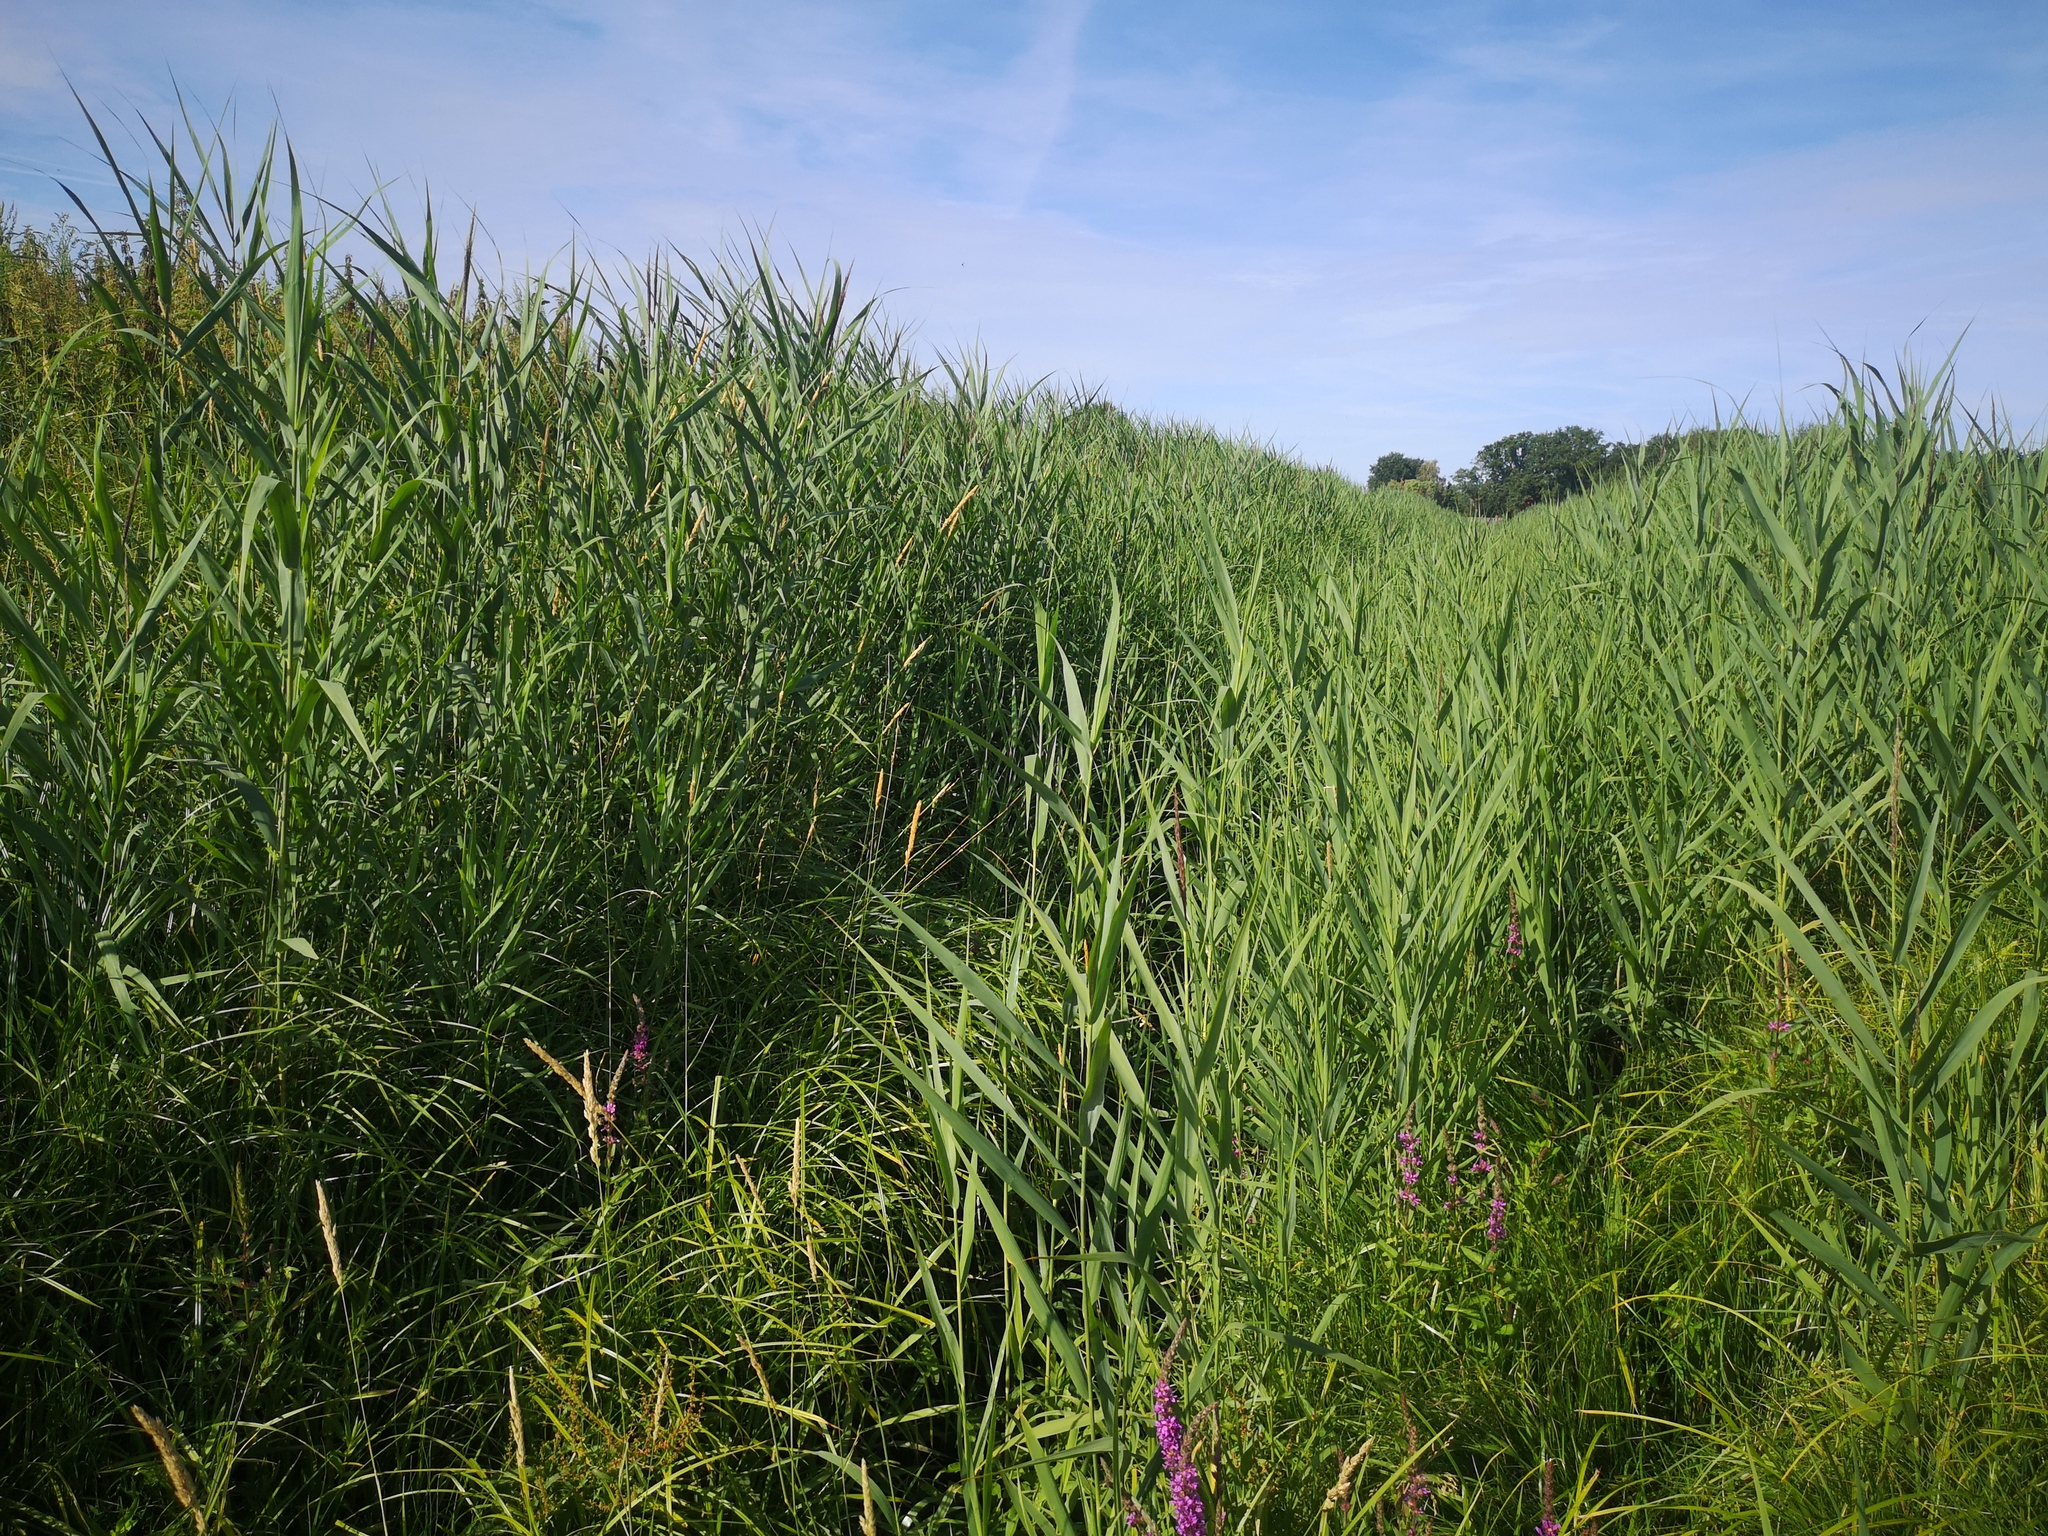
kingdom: Plantae
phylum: Tracheophyta
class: Liliopsida
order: Poales
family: Poaceae
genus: Phragmites
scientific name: Phragmites australis
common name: Common reed
